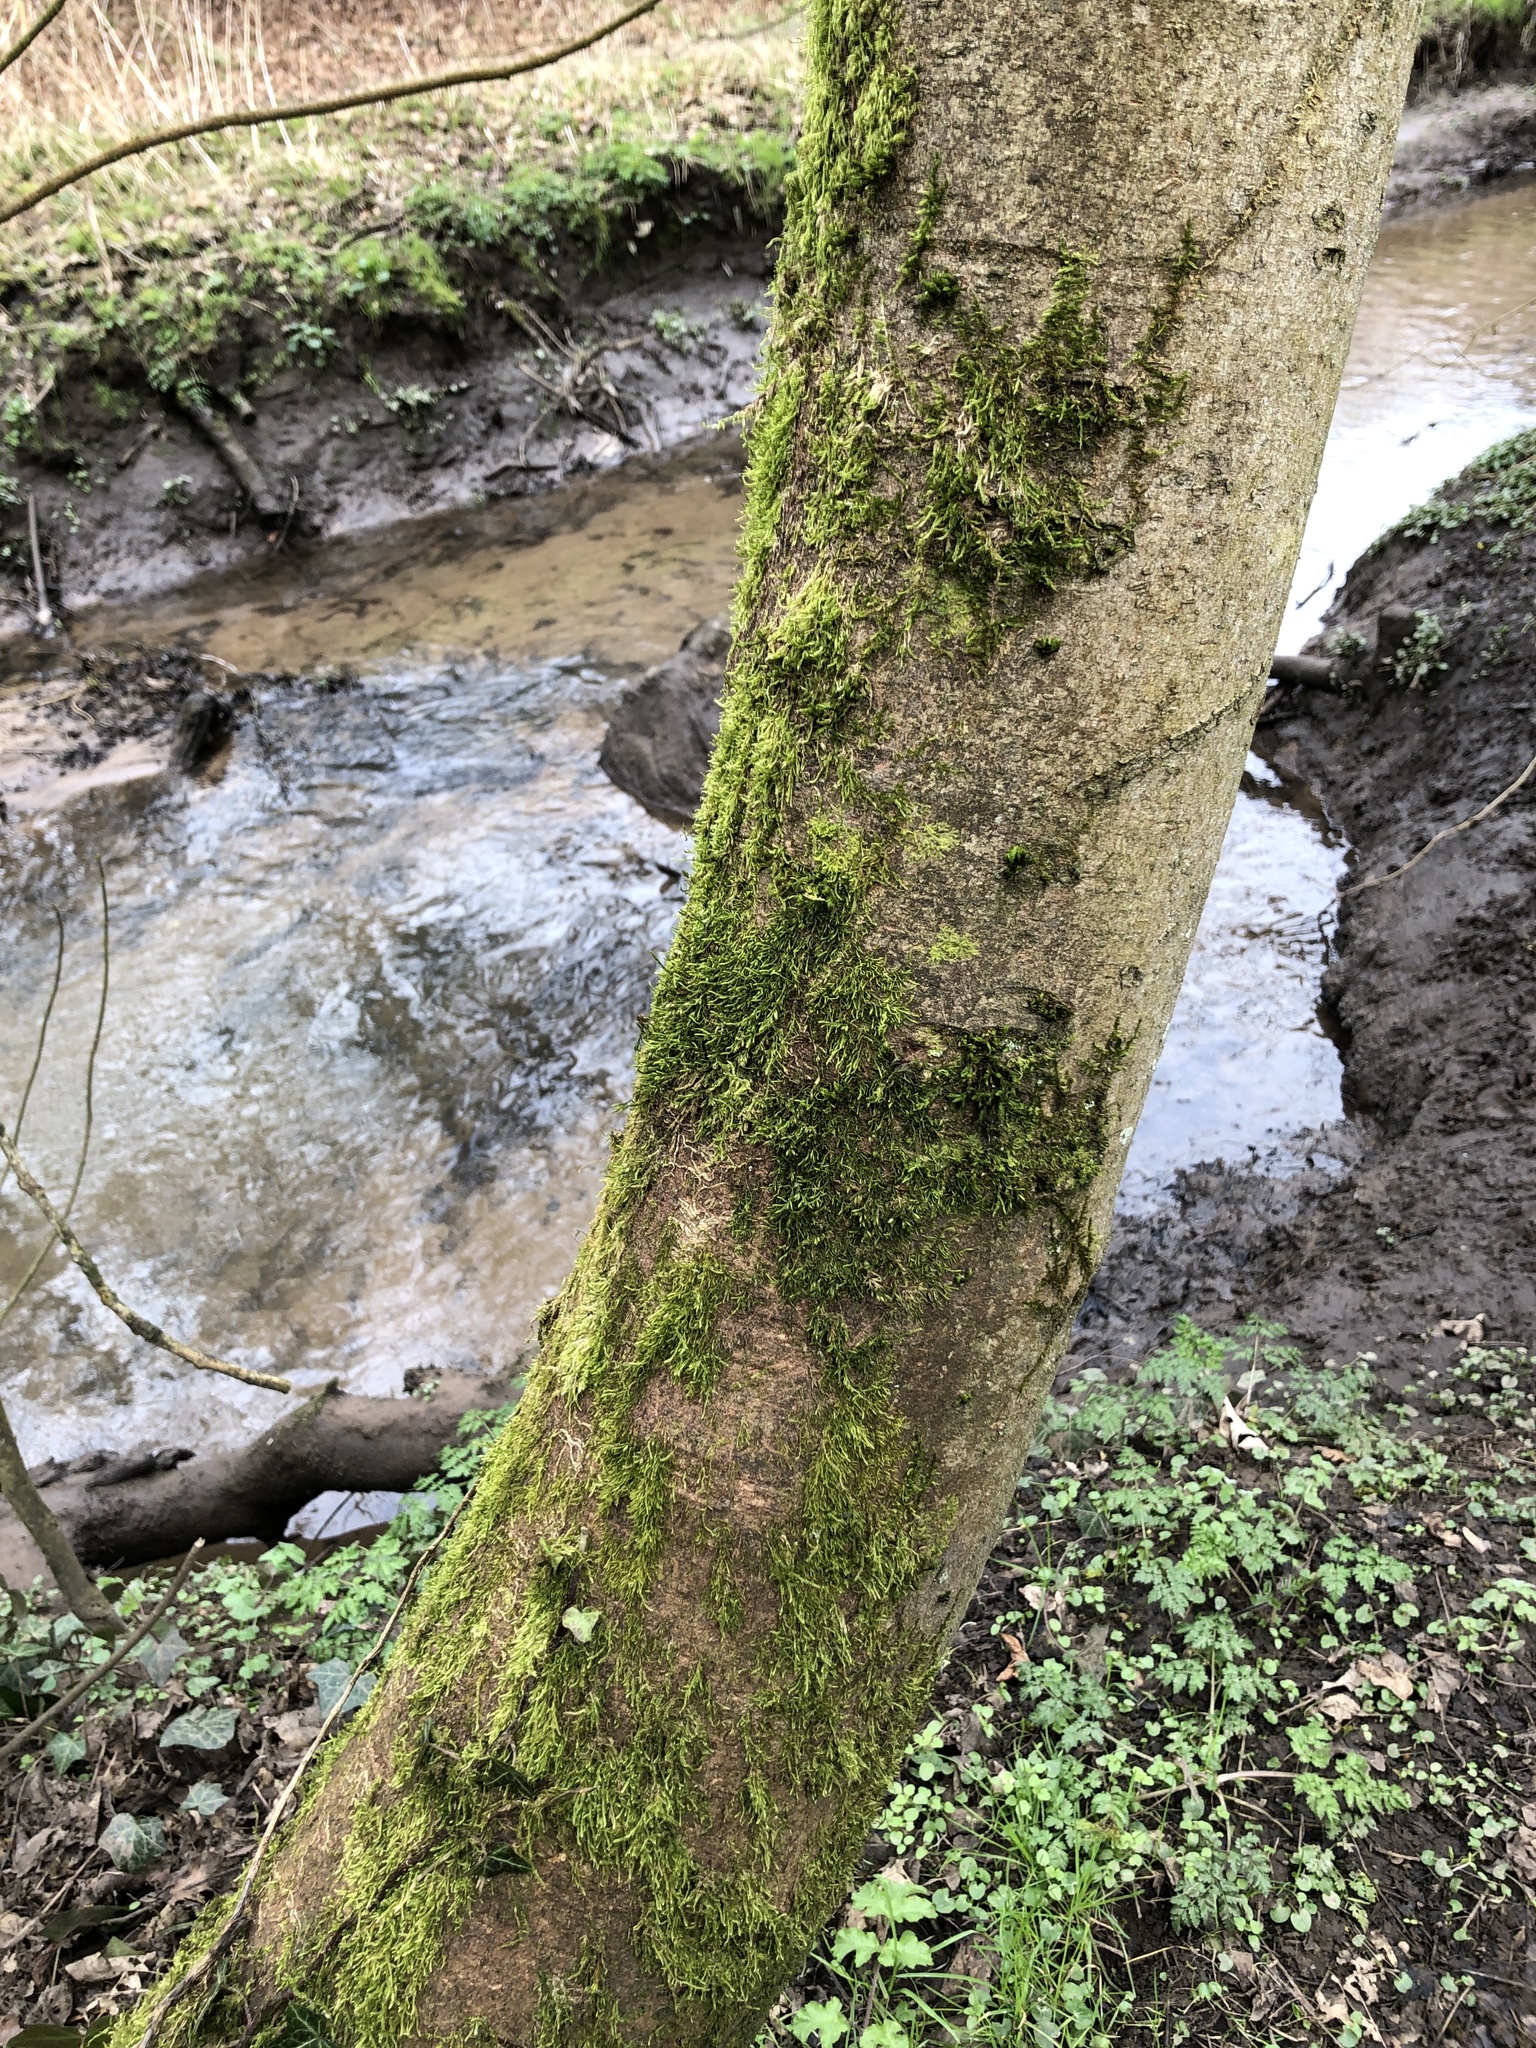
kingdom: Plantae
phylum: Bryophyta
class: Bryopsida
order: Hypnales
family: Cryphaeaceae
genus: Cryphaea
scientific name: Cryphaea heteromalla
